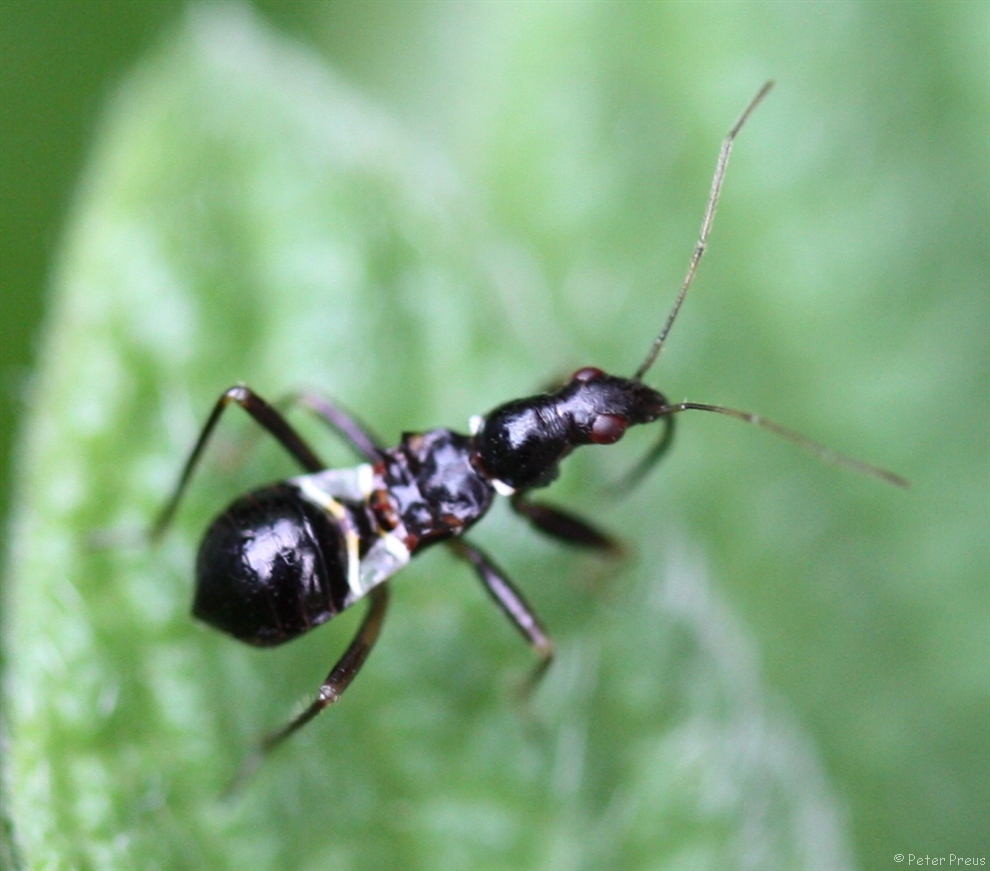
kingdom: Animalia
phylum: Arthropoda
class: Insecta
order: Hemiptera
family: Nabidae
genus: Himacerus
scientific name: Himacerus mirmicoides
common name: Ant damsel bug
